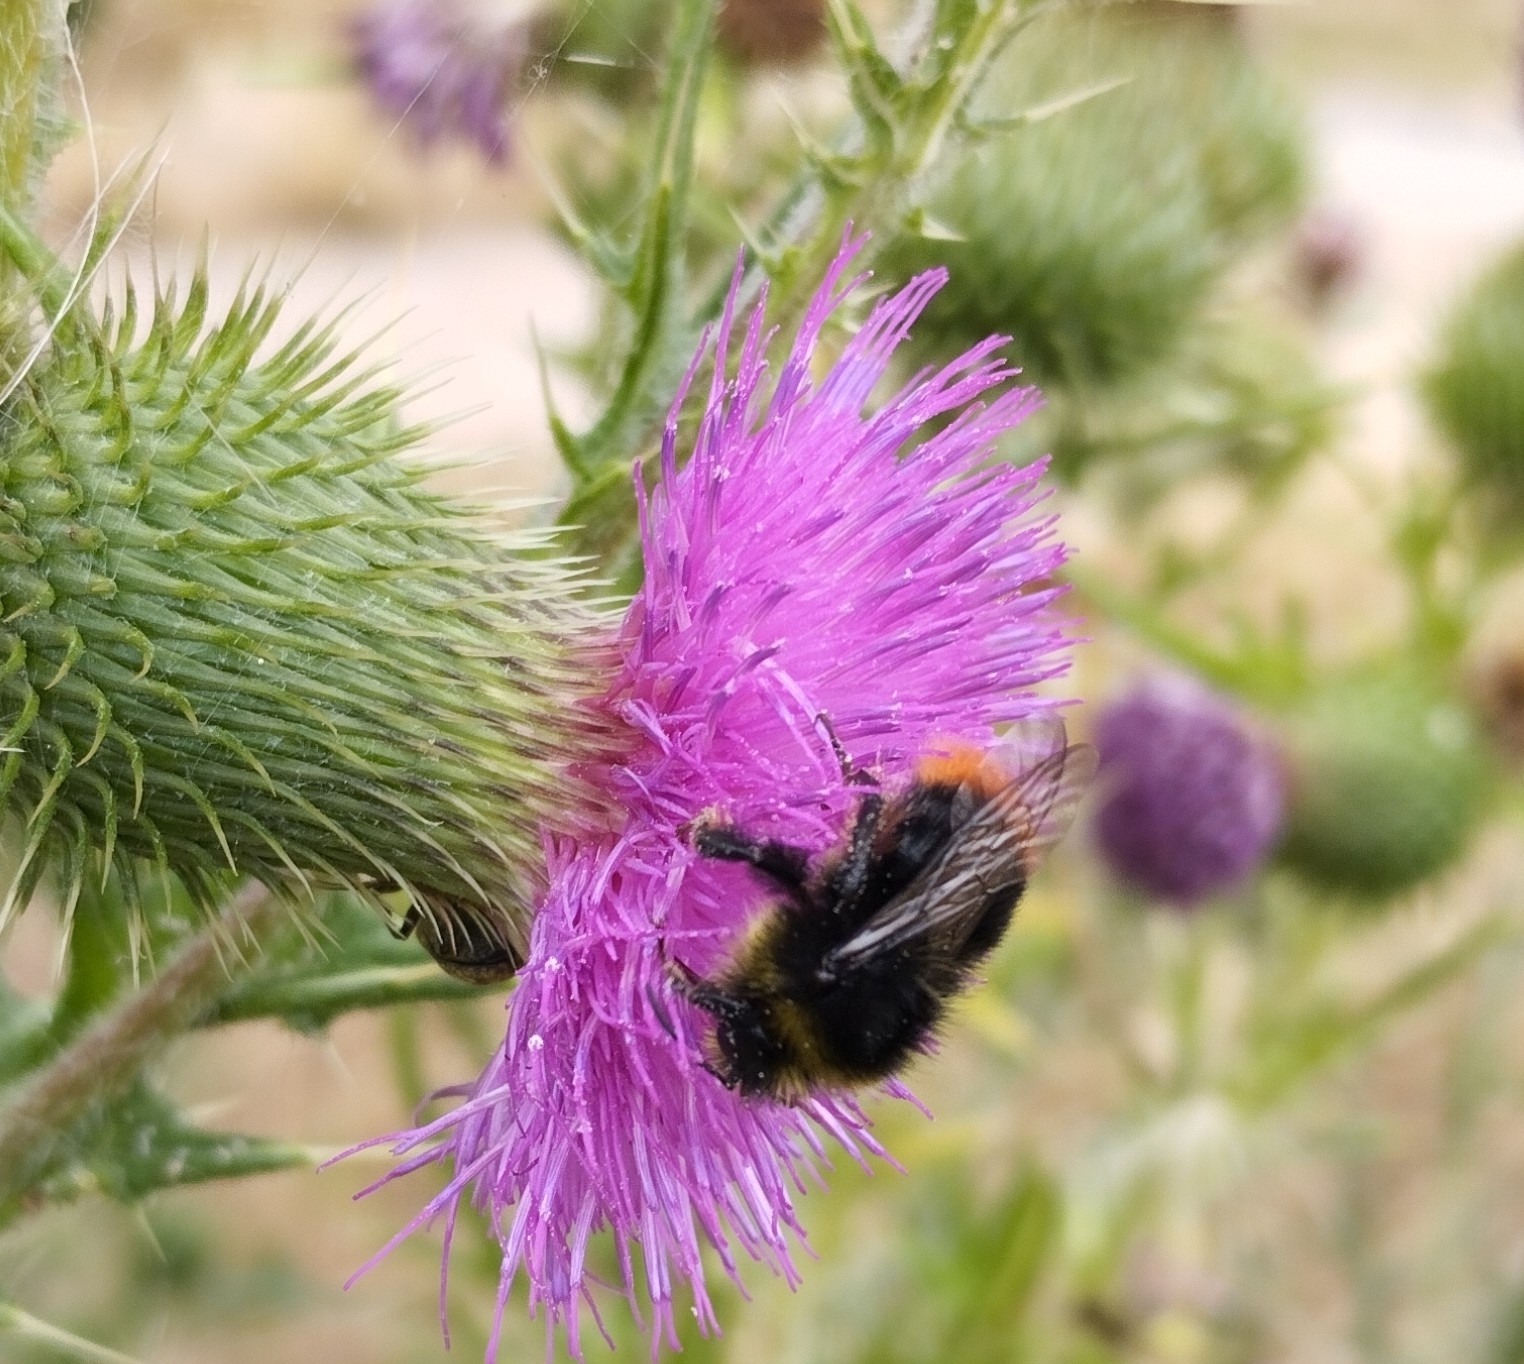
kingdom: Animalia
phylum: Arthropoda
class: Insecta
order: Hymenoptera
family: Apidae
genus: Bombus
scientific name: Bombus lapidarius
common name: Large red-tailed humble-bee
